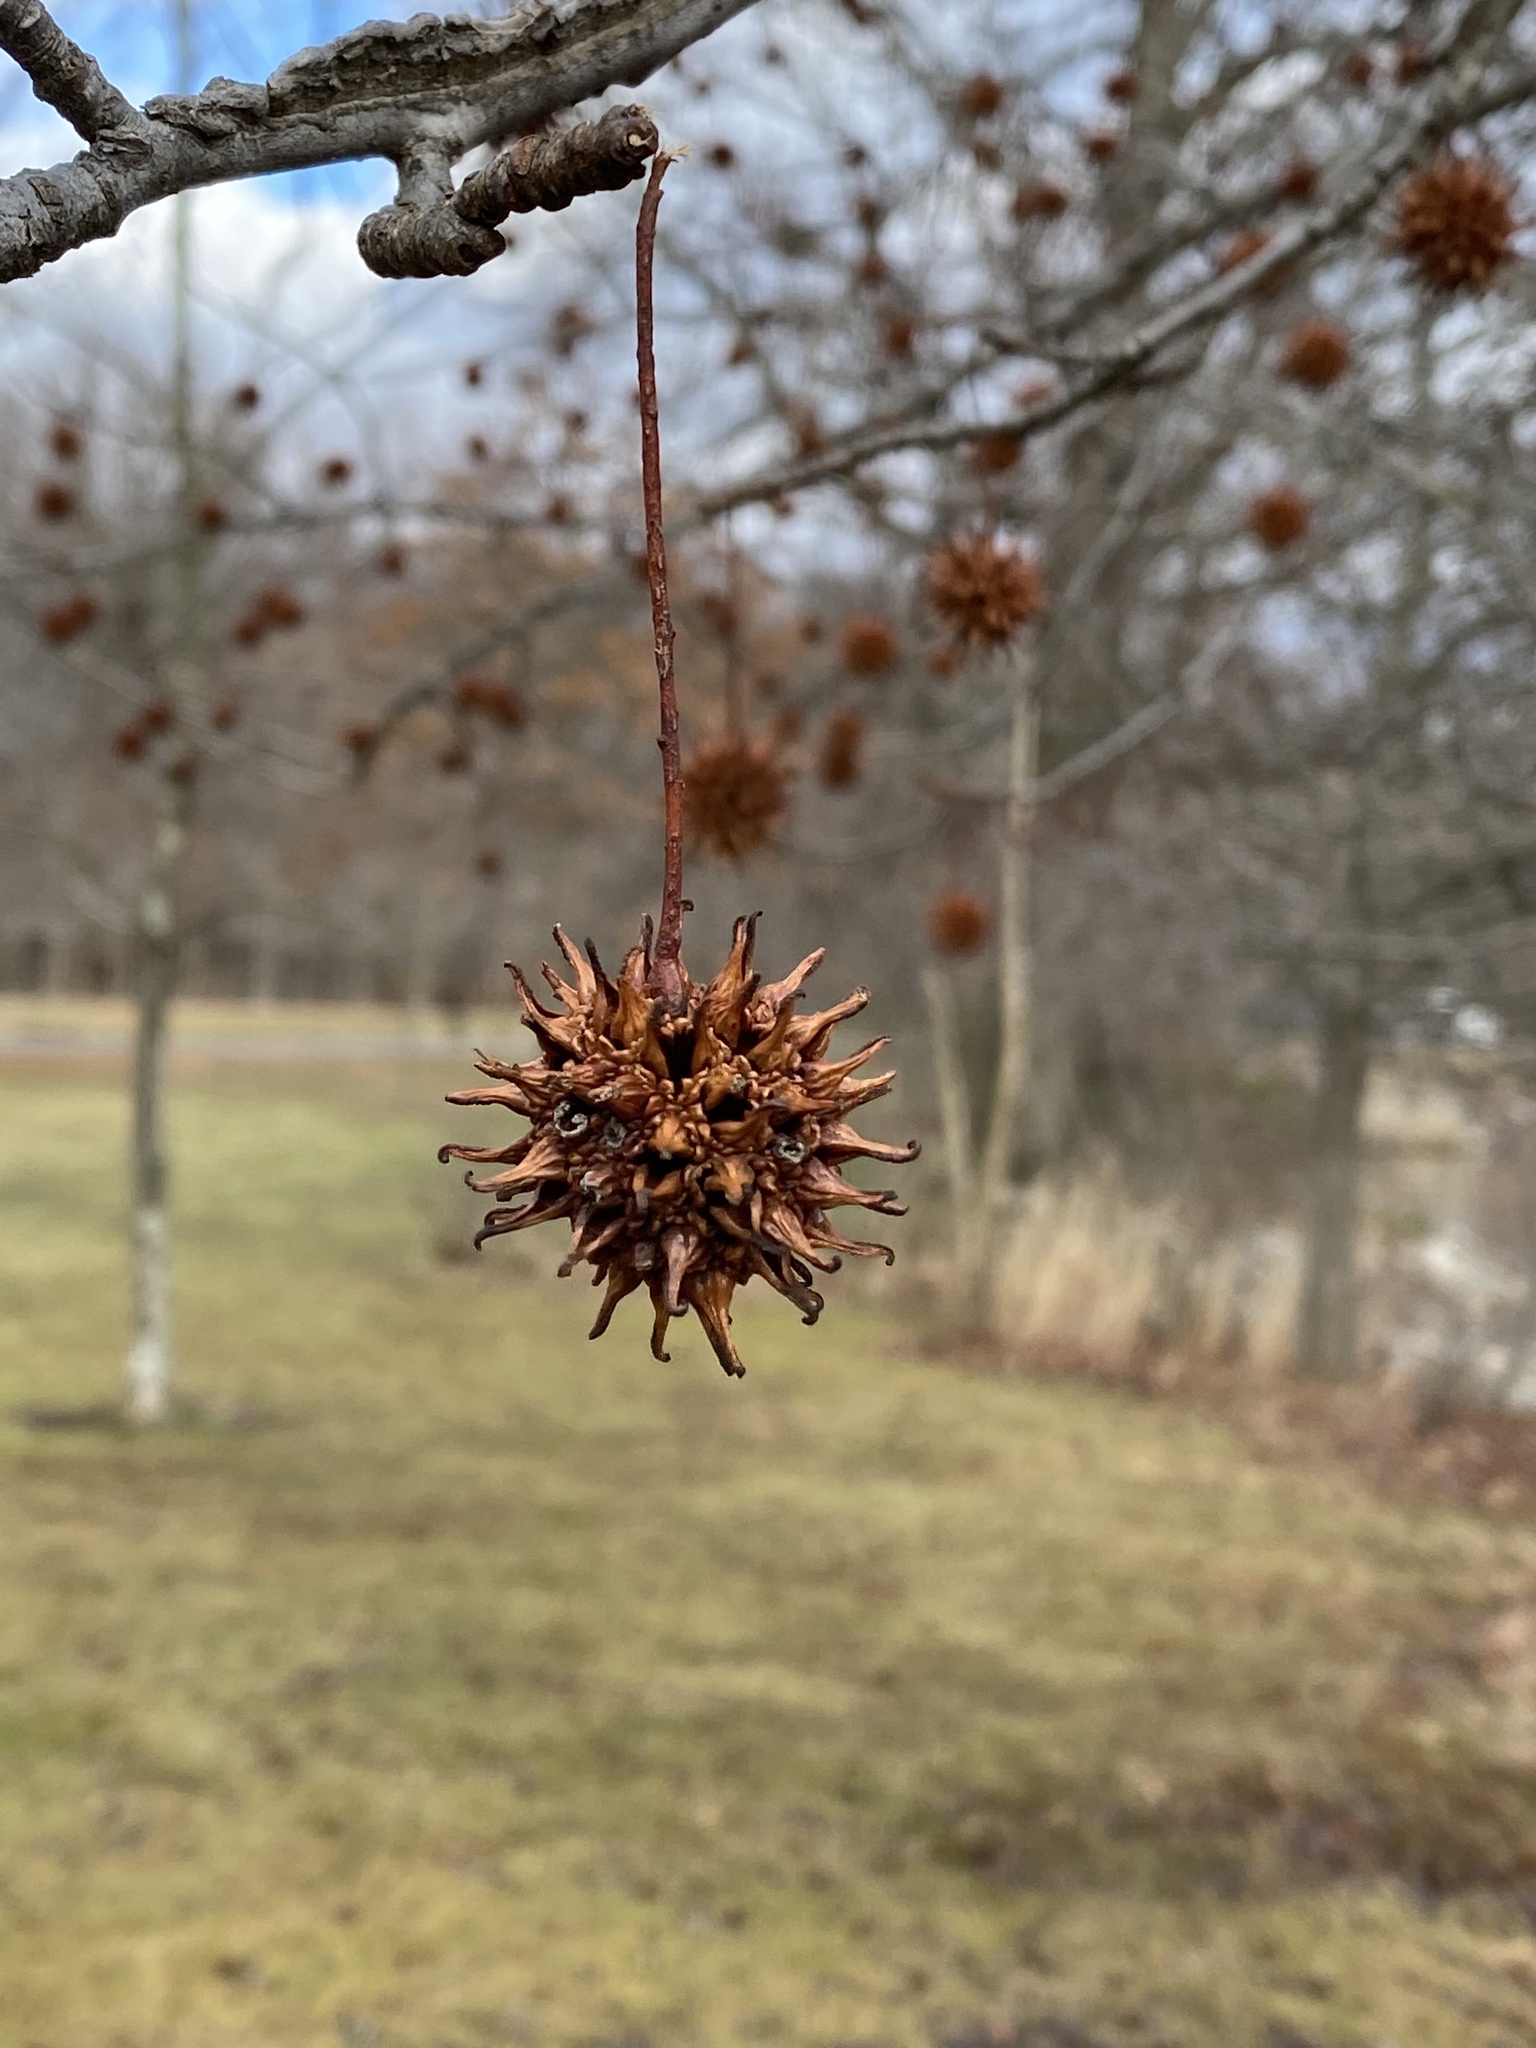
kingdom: Plantae
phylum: Tracheophyta
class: Magnoliopsida
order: Saxifragales
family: Altingiaceae
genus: Liquidambar
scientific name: Liquidambar styraciflua
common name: Sweet gum
